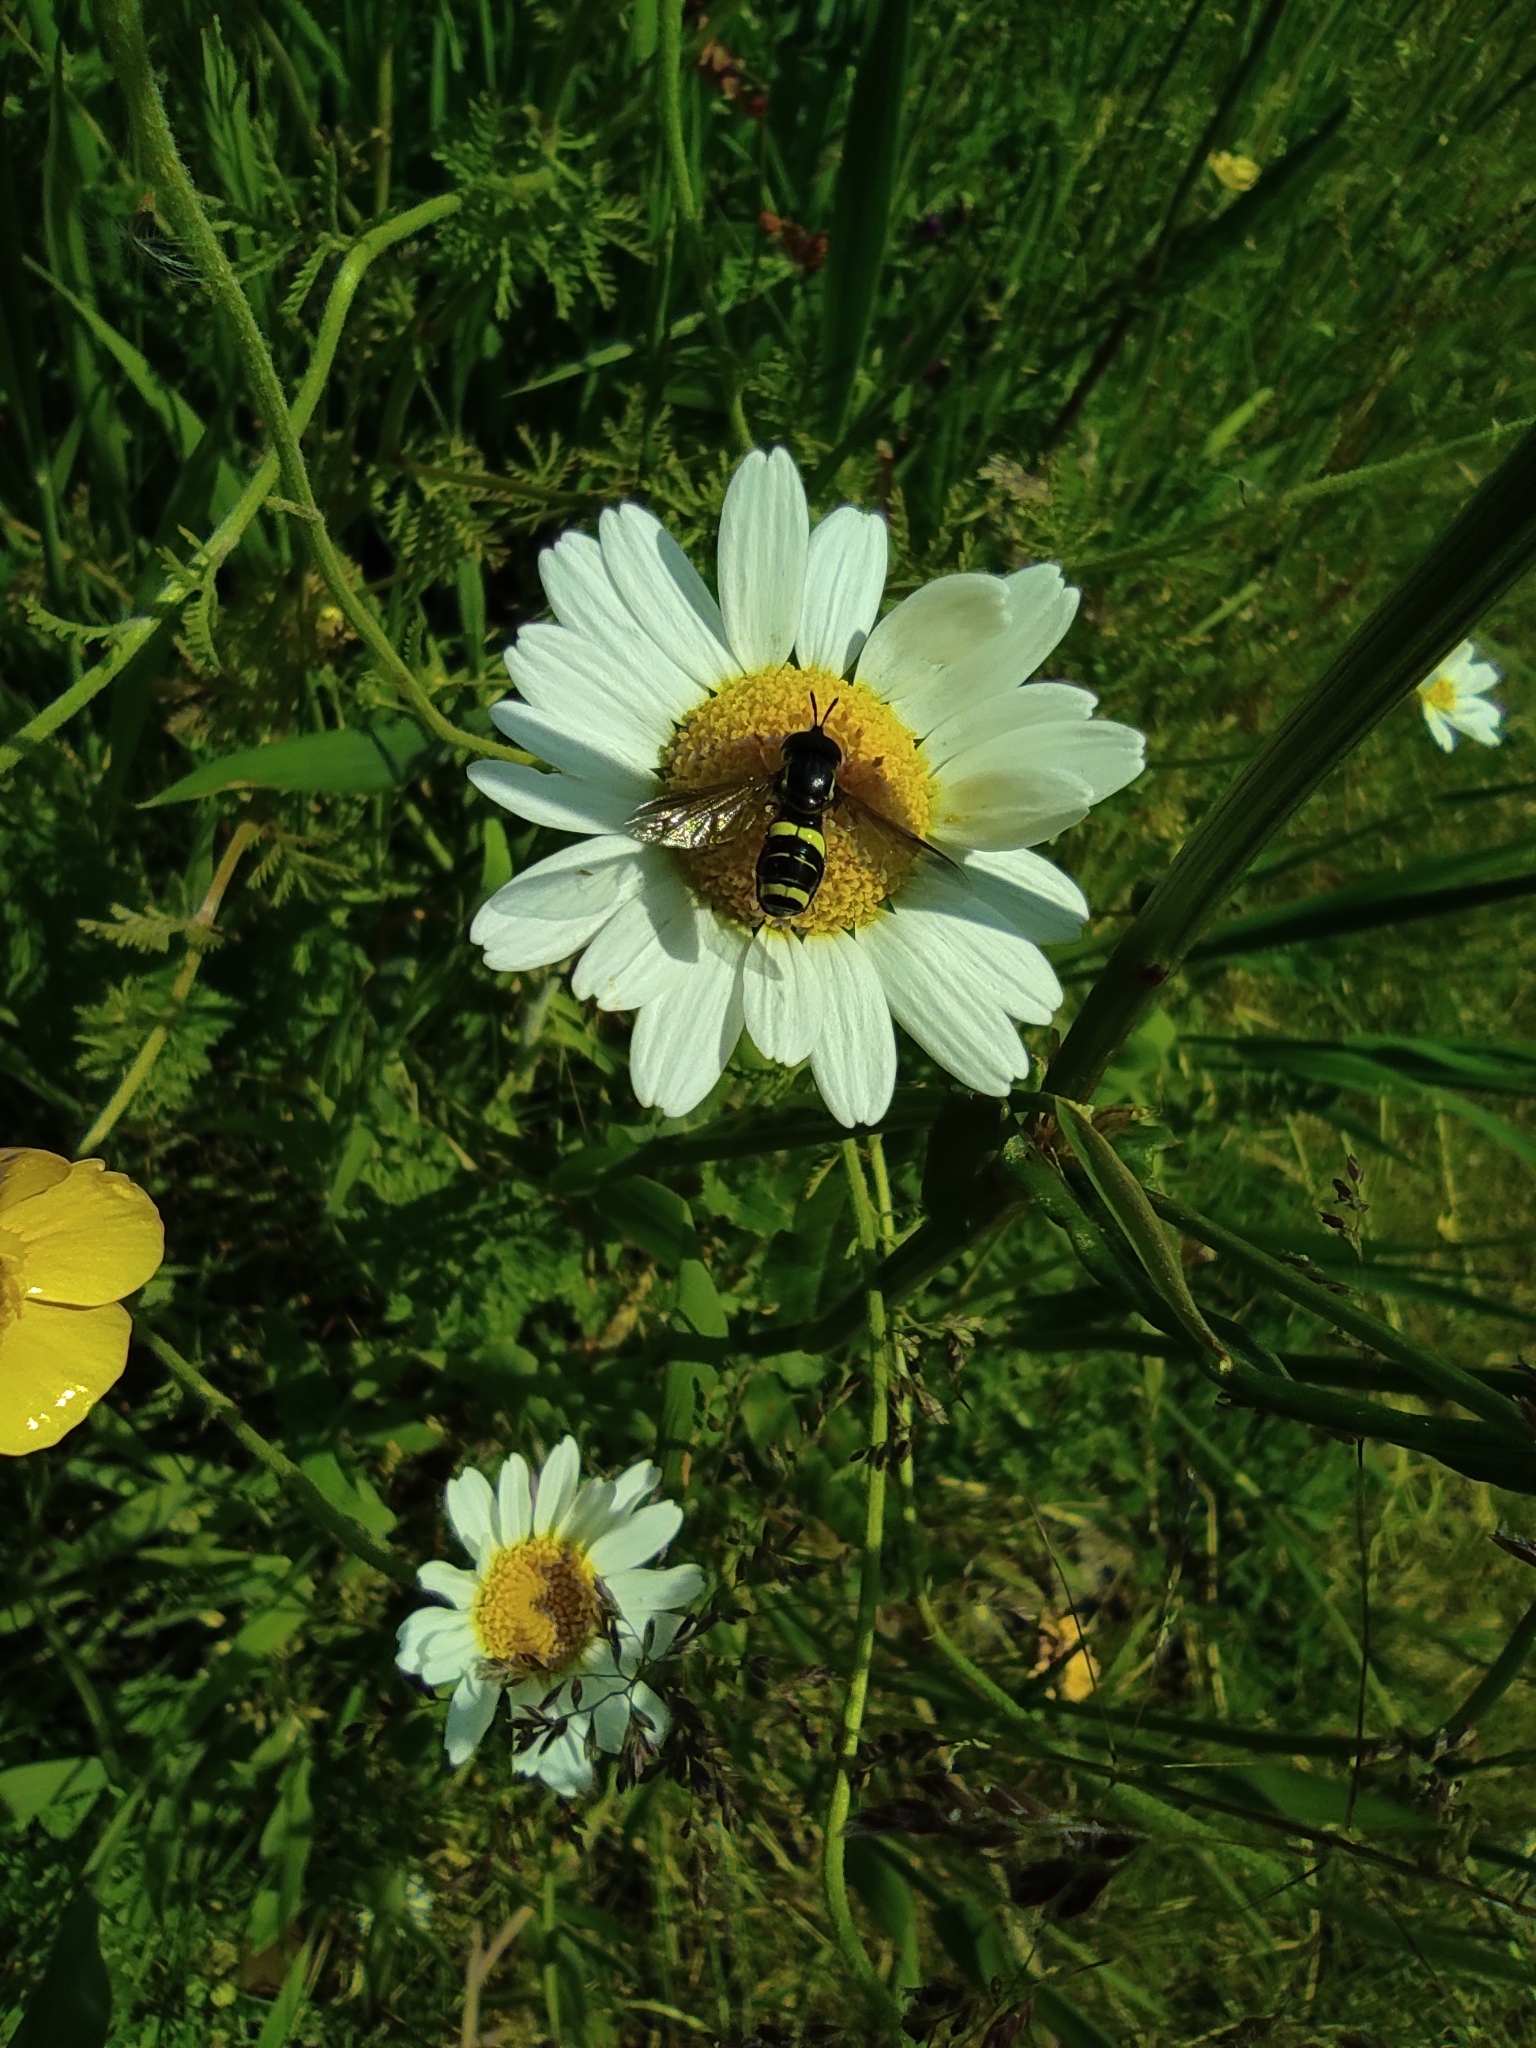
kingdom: Animalia
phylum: Arthropoda
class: Insecta
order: Diptera
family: Syrphidae
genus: Chrysotoxum
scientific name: Chrysotoxum bicincta
